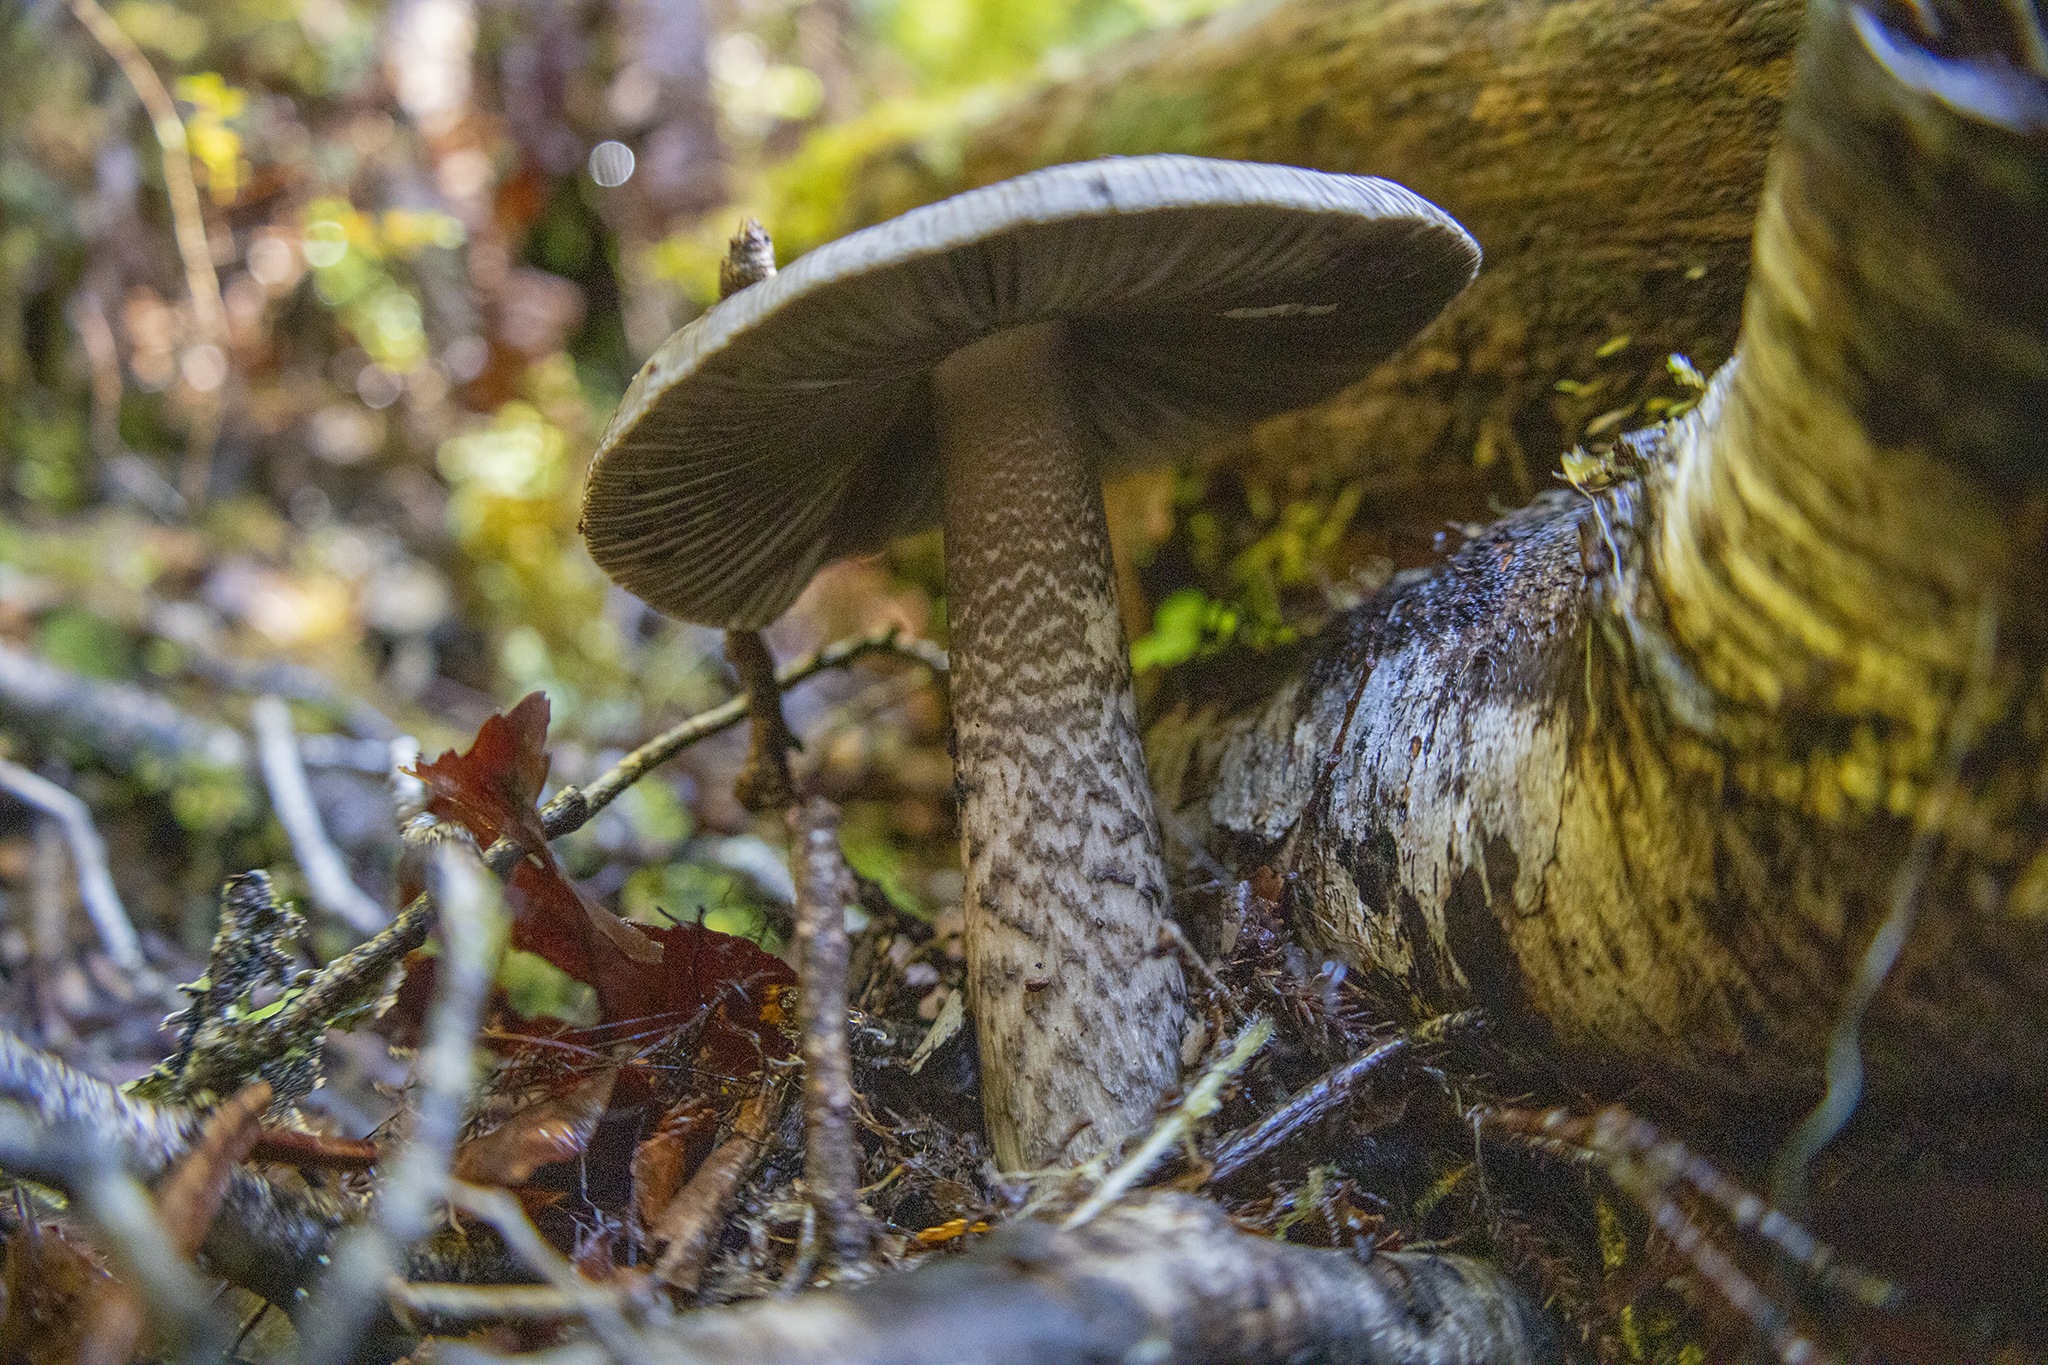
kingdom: Fungi
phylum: Basidiomycota
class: Agaricomycetes
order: Agaricales
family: Amanitaceae
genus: Amanita
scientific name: Amanita pekeoides
